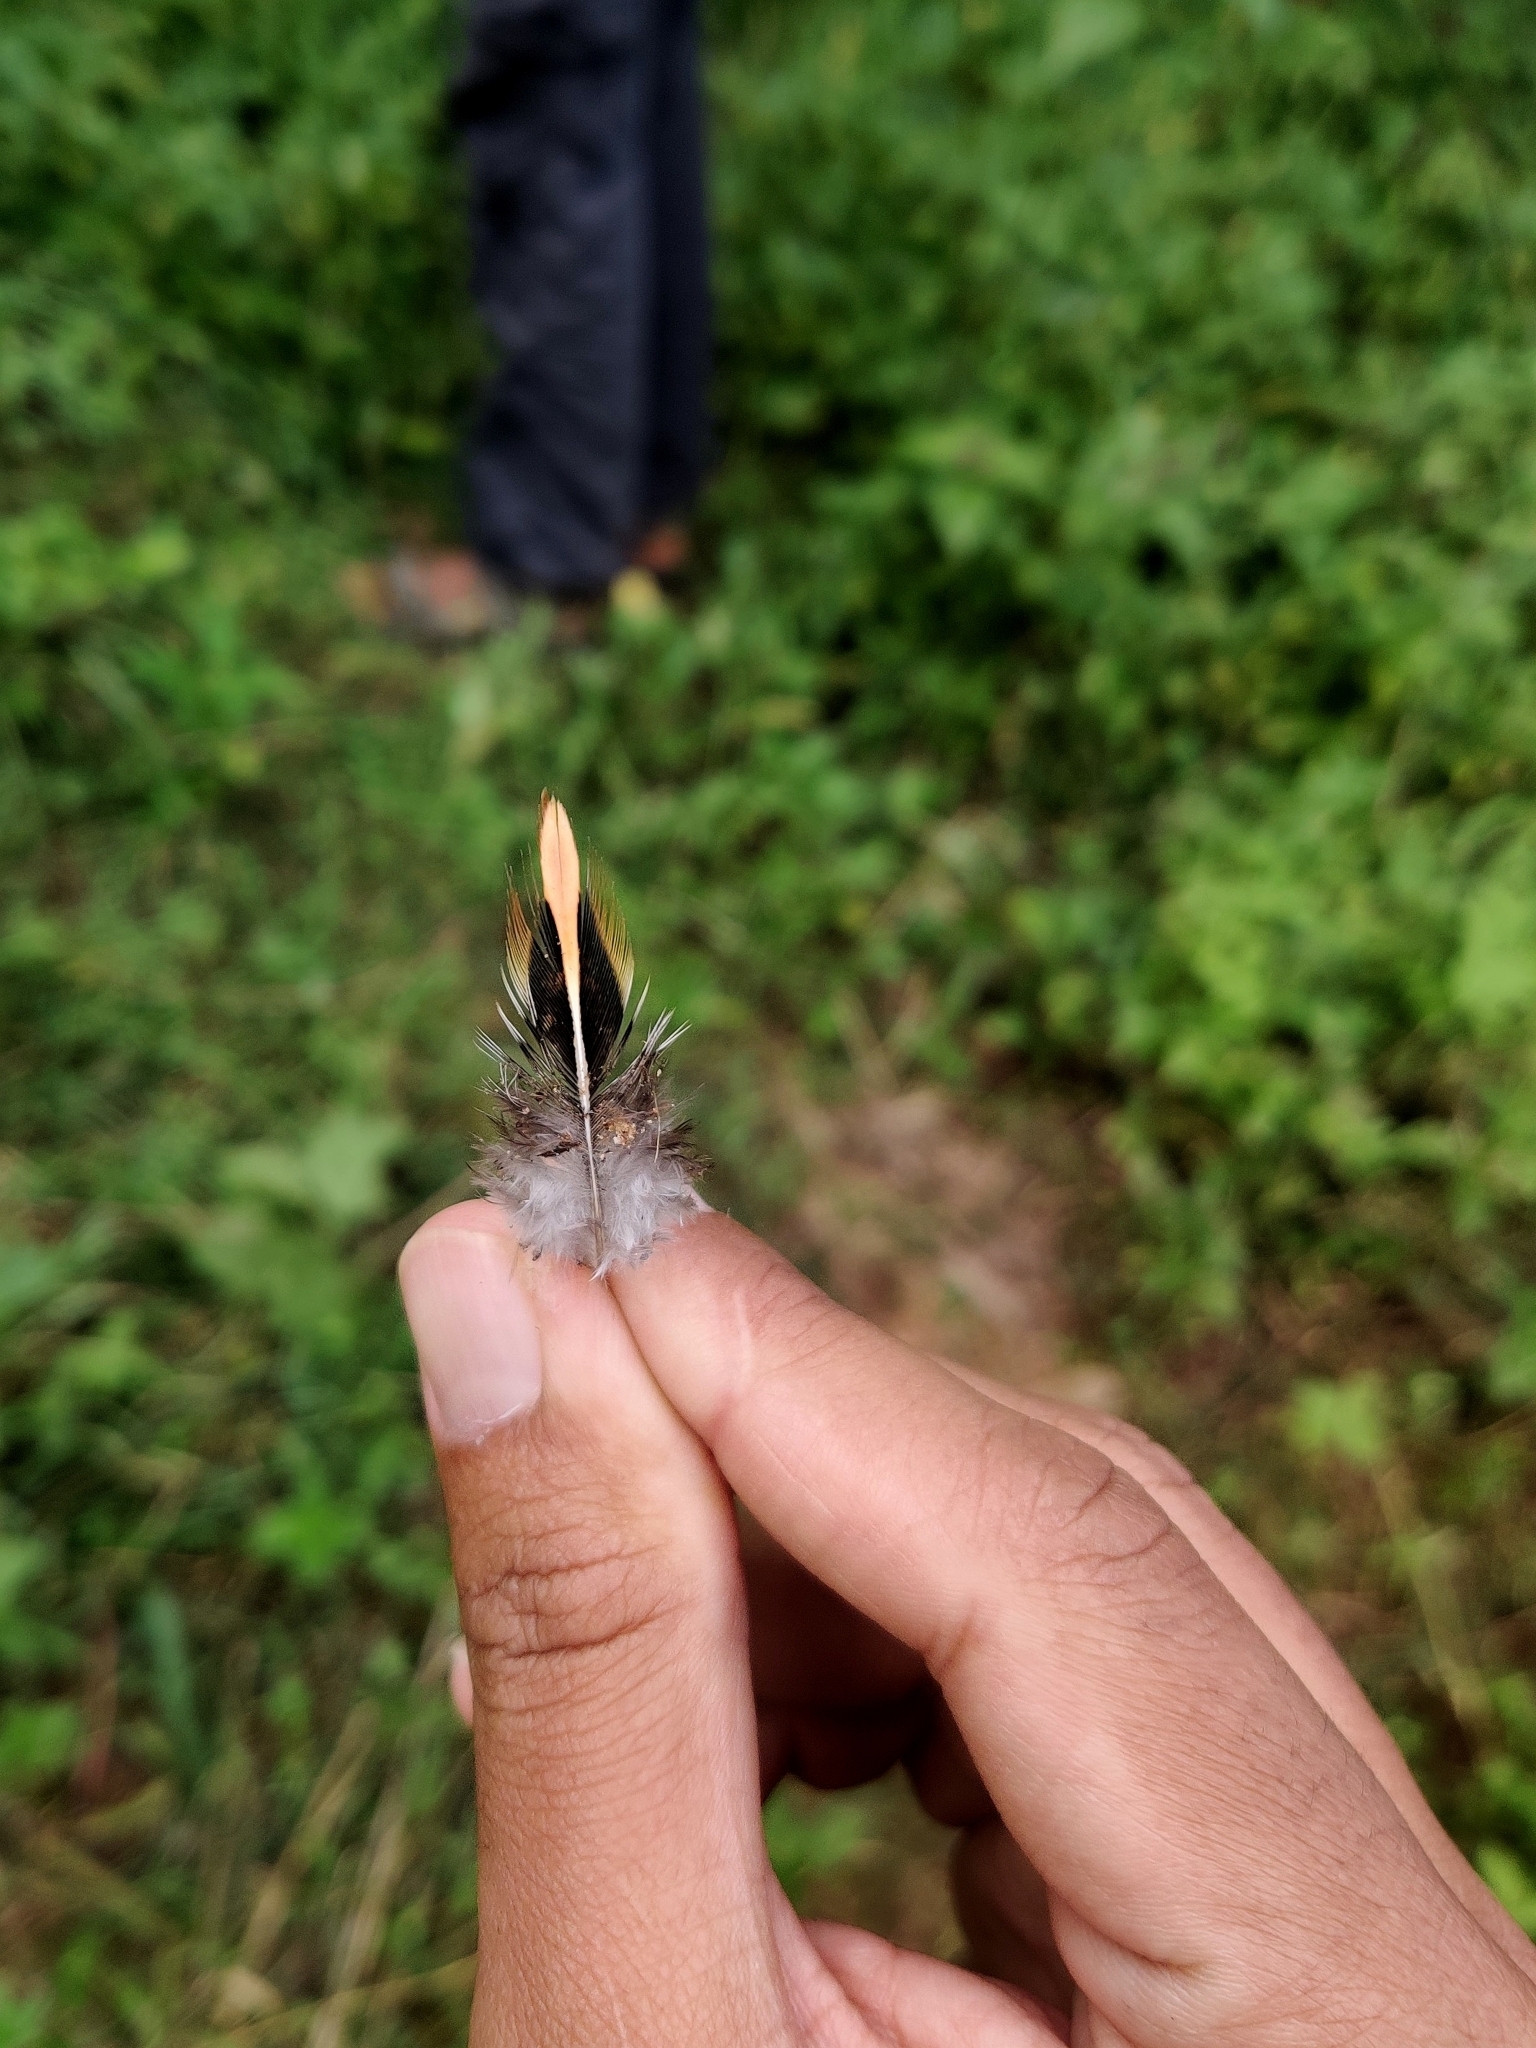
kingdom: Animalia
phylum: Chordata
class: Aves
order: Galliformes
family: Phasianidae
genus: Gallus
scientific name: Gallus sonneratii
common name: Grey junglefowl
